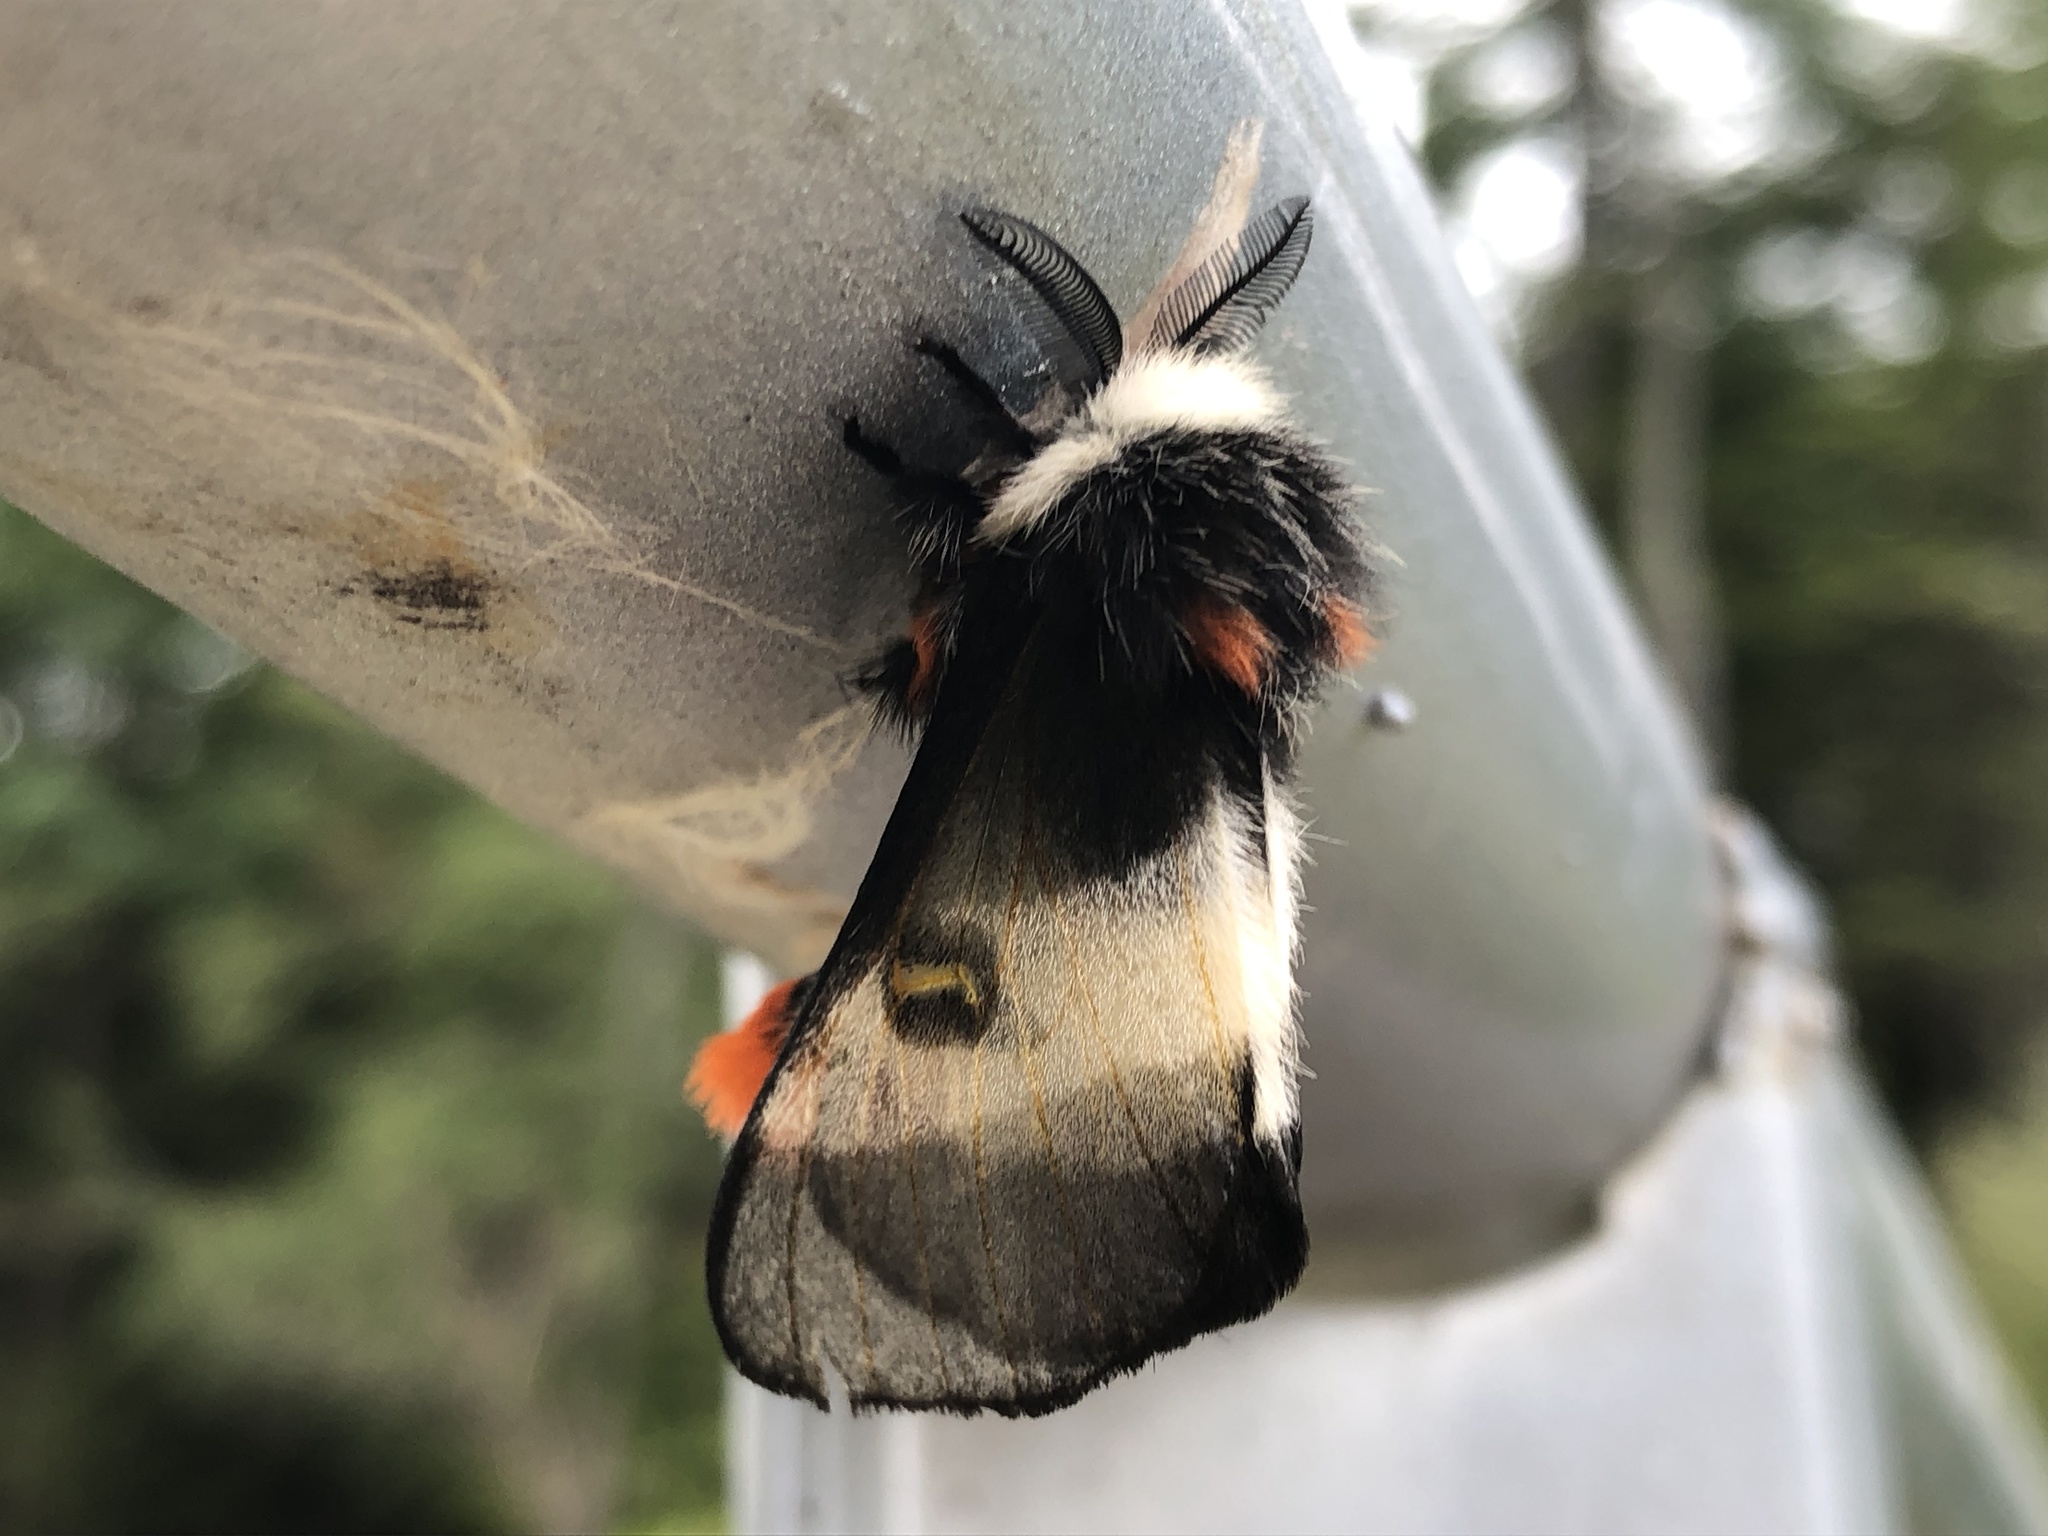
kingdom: Animalia
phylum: Arthropoda
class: Insecta
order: Lepidoptera
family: Saturniidae
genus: Hemileuca
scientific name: Hemileuca lucina
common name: New england buckmoth
